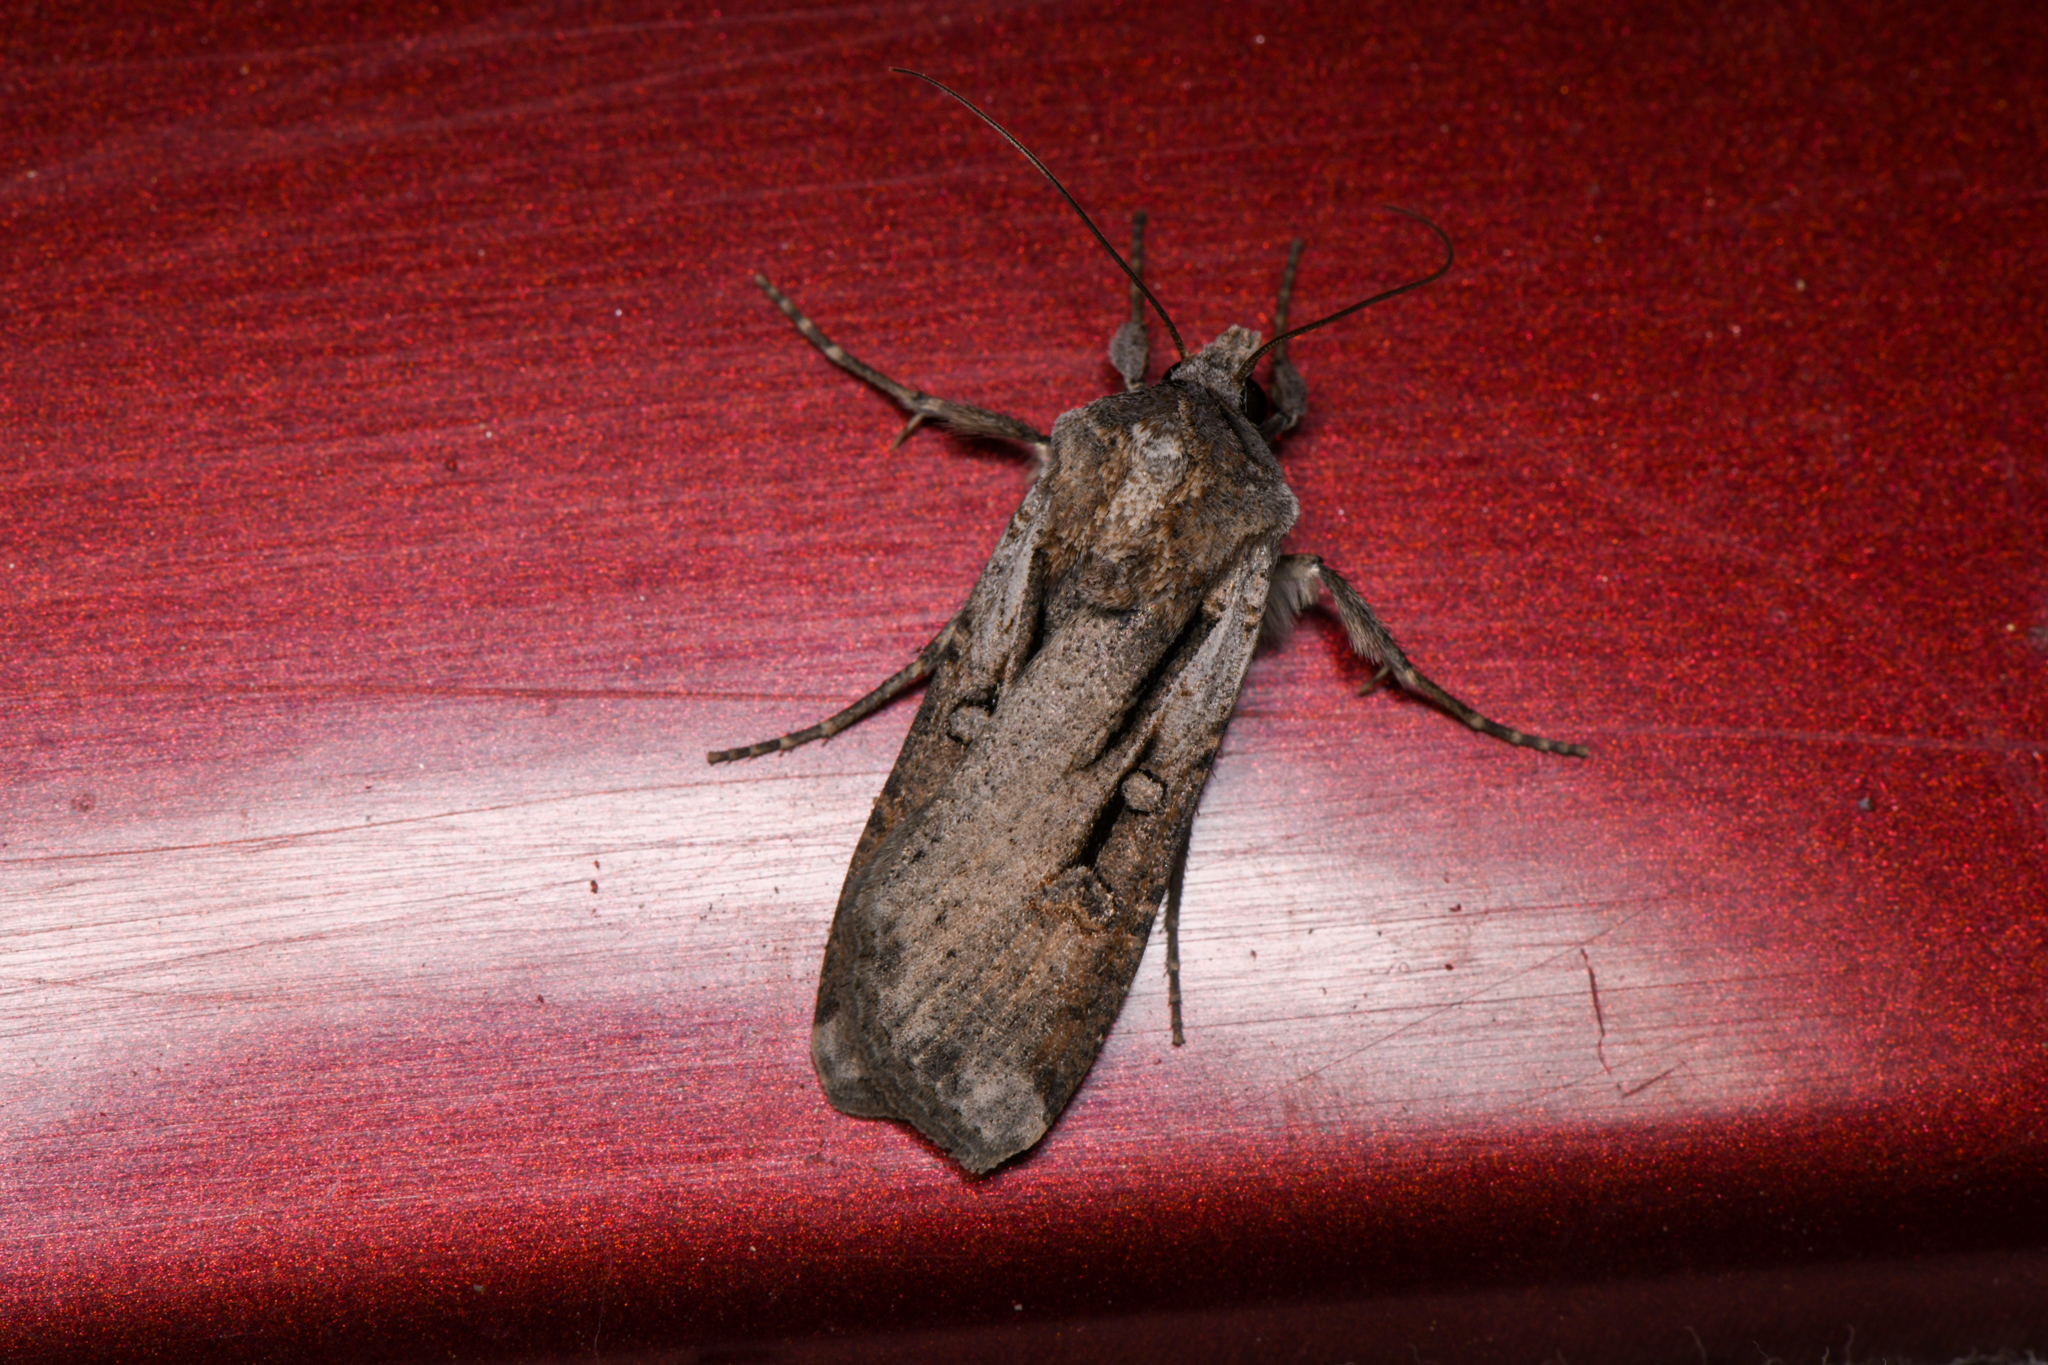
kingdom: Animalia
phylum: Arthropoda
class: Insecta
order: Lepidoptera
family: Noctuidae
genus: Hemieuxoa
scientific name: Hemieuxoa rudens
